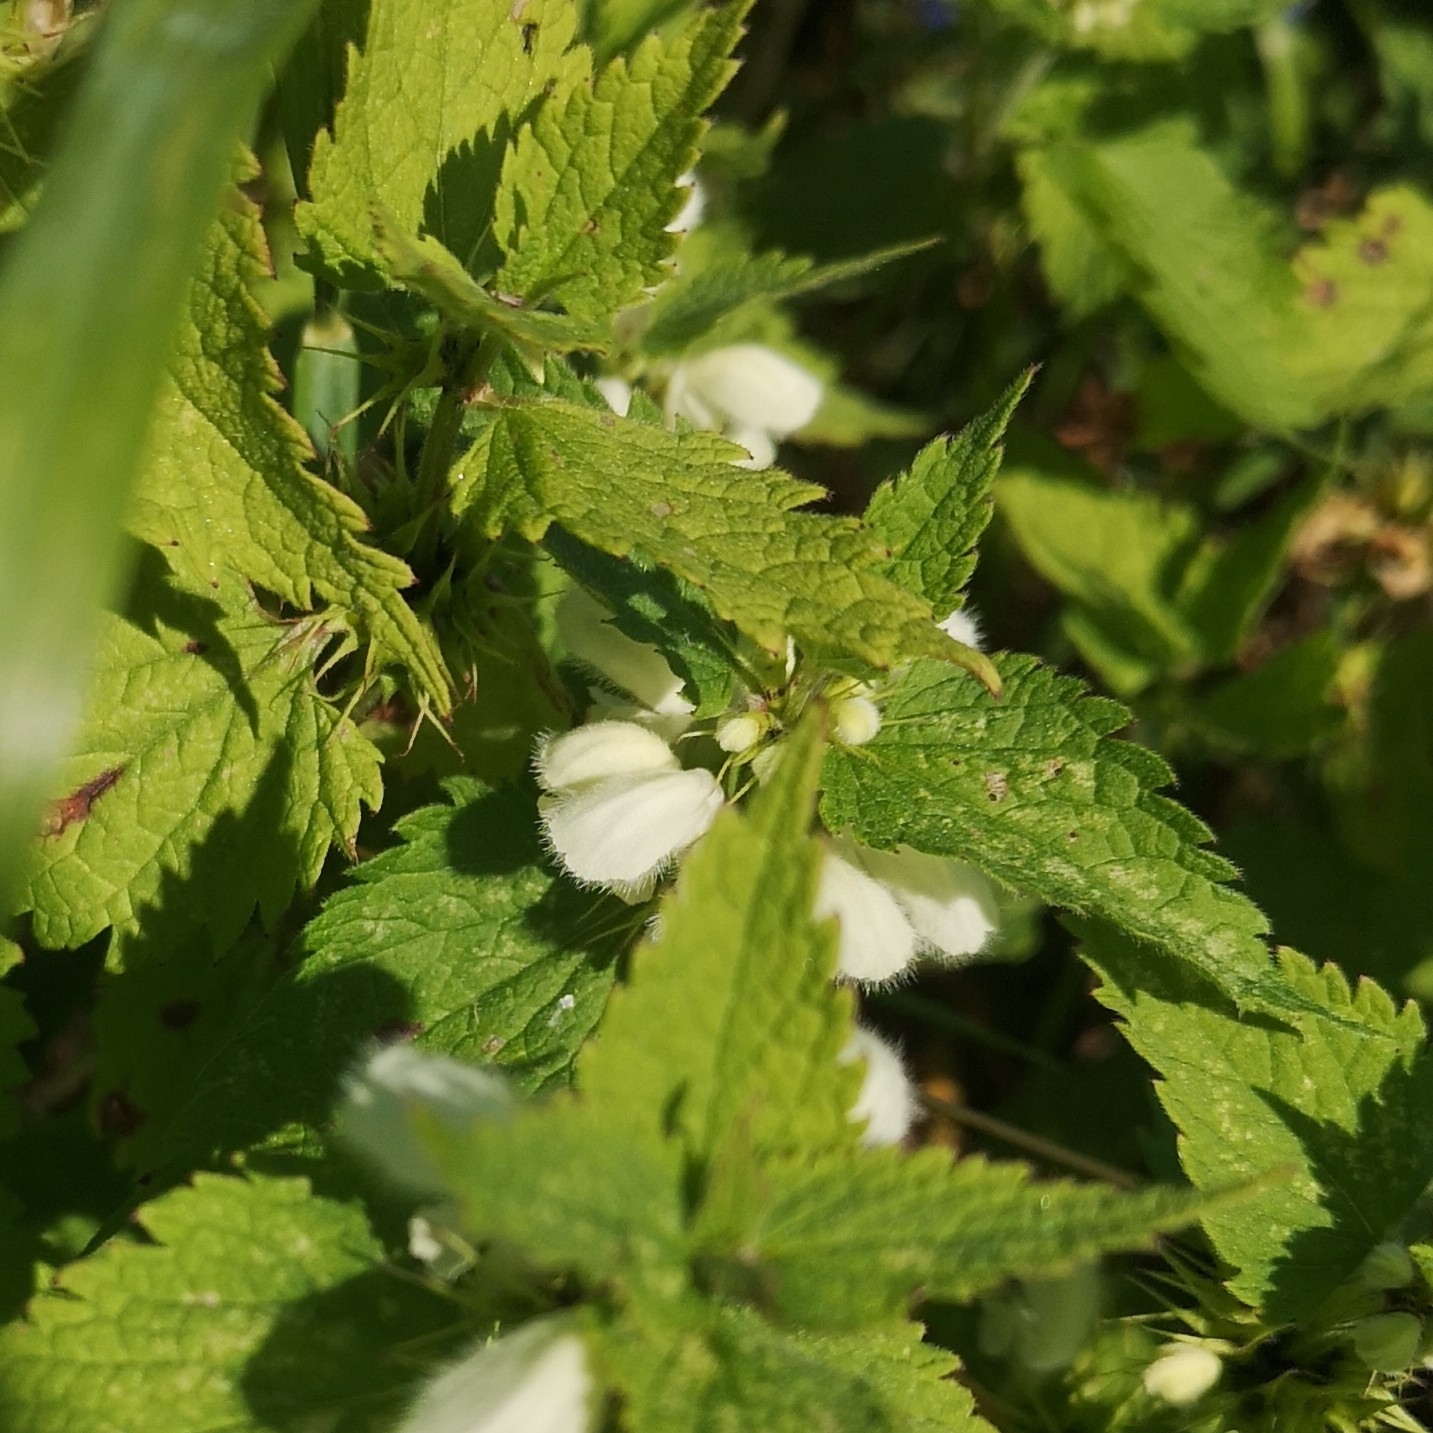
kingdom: Plantae
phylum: Tracheophyta
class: Magnoliopsida
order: Lamiales
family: Lamiaceae
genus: Lamium
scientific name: Lamium album
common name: White dead-nettle
